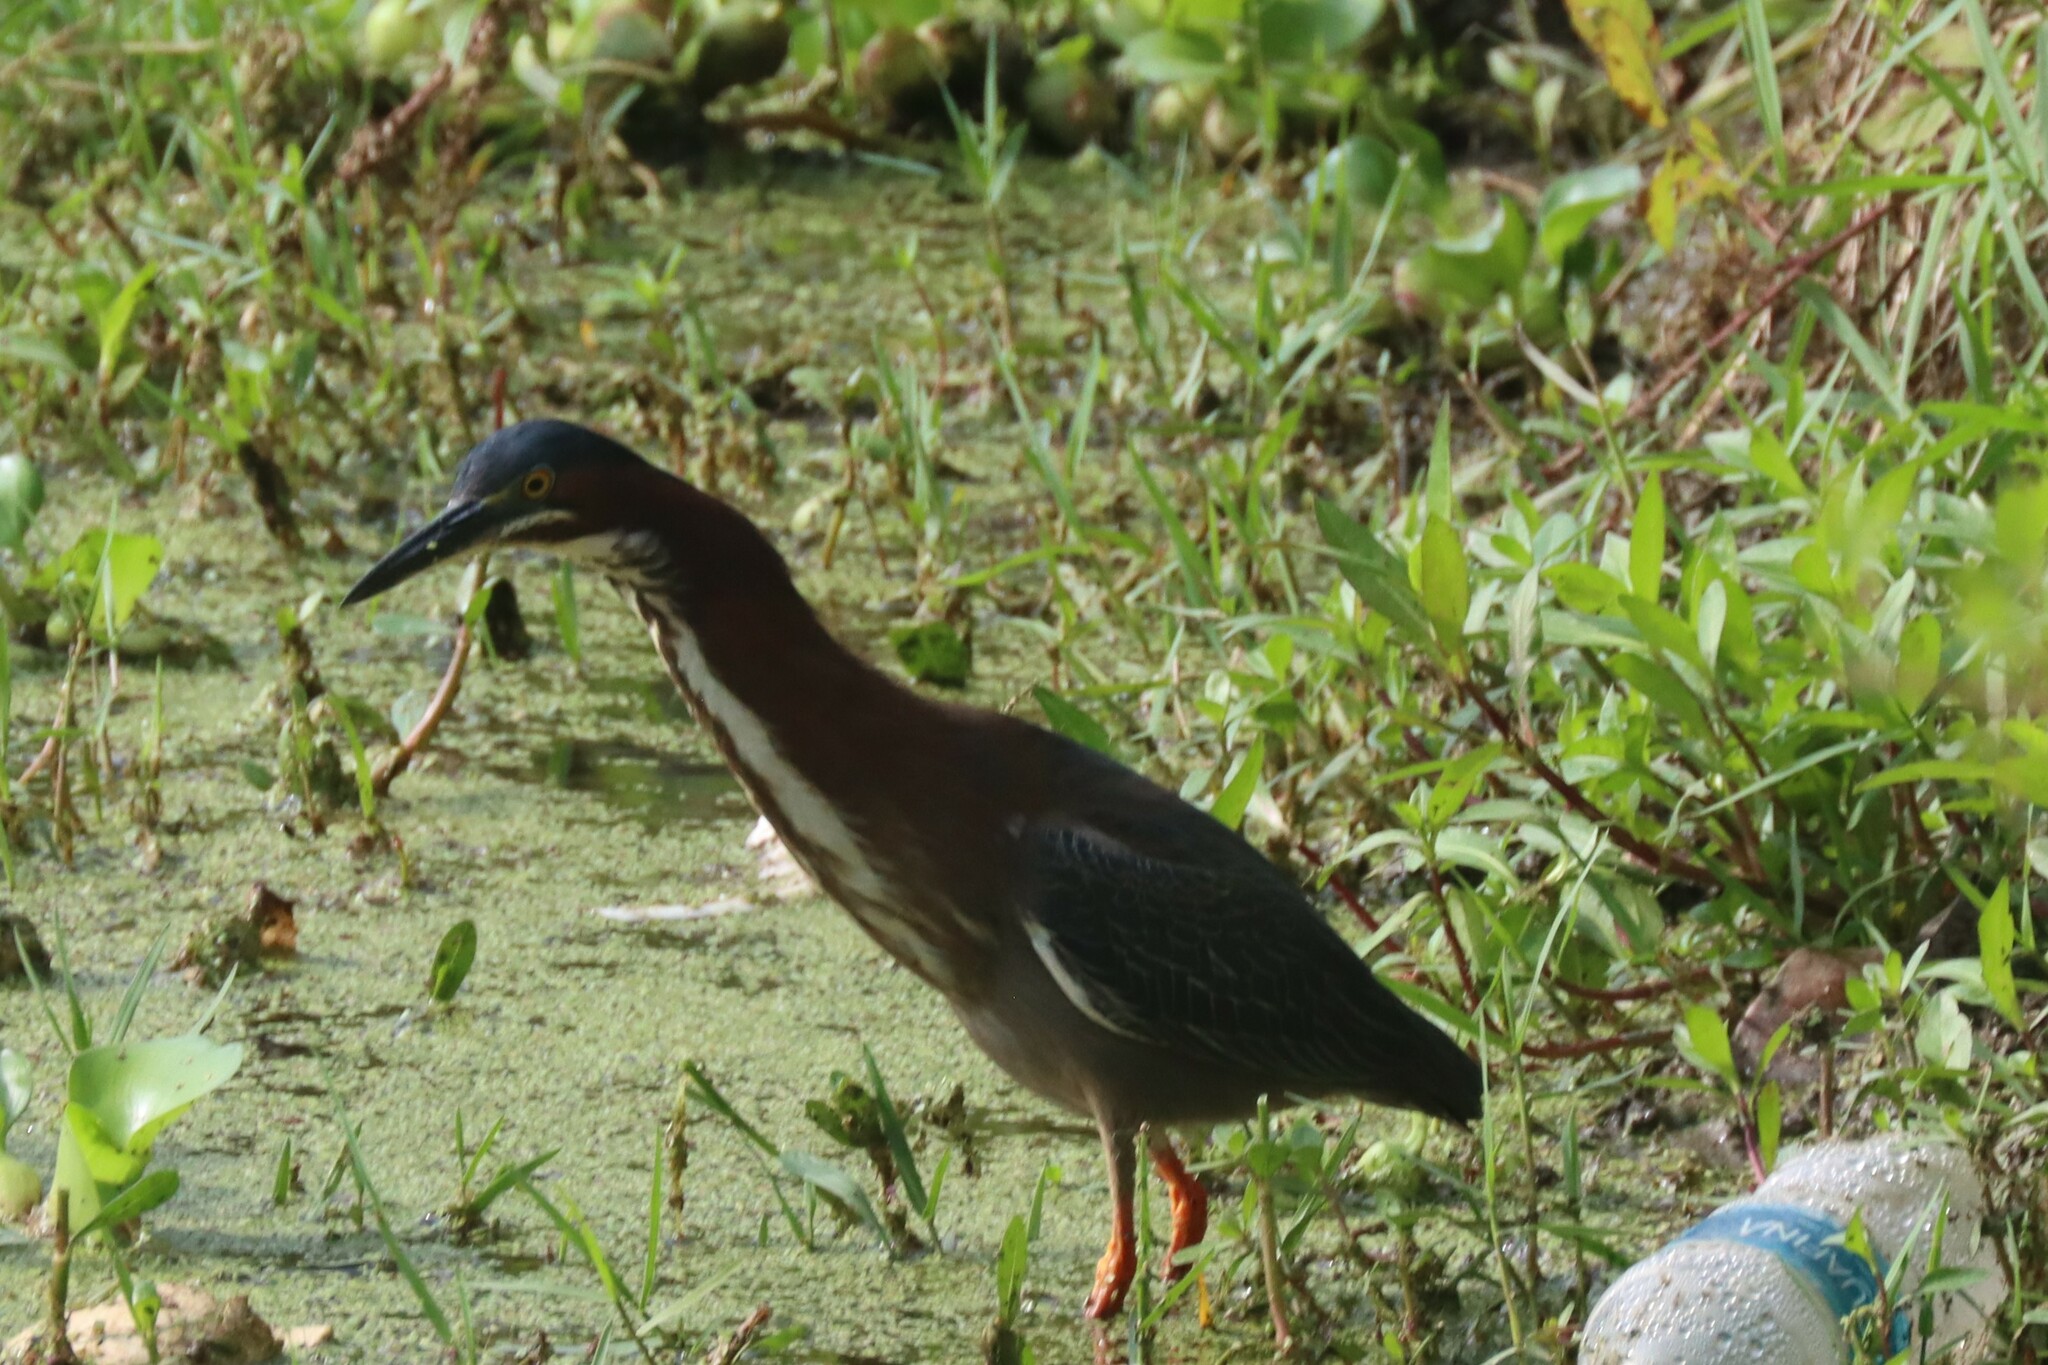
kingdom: Animalia
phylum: Chordata
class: Aves
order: Pelecaniformes
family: Ardeidae
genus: Butorides
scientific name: Butorides virescens
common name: Green heron
